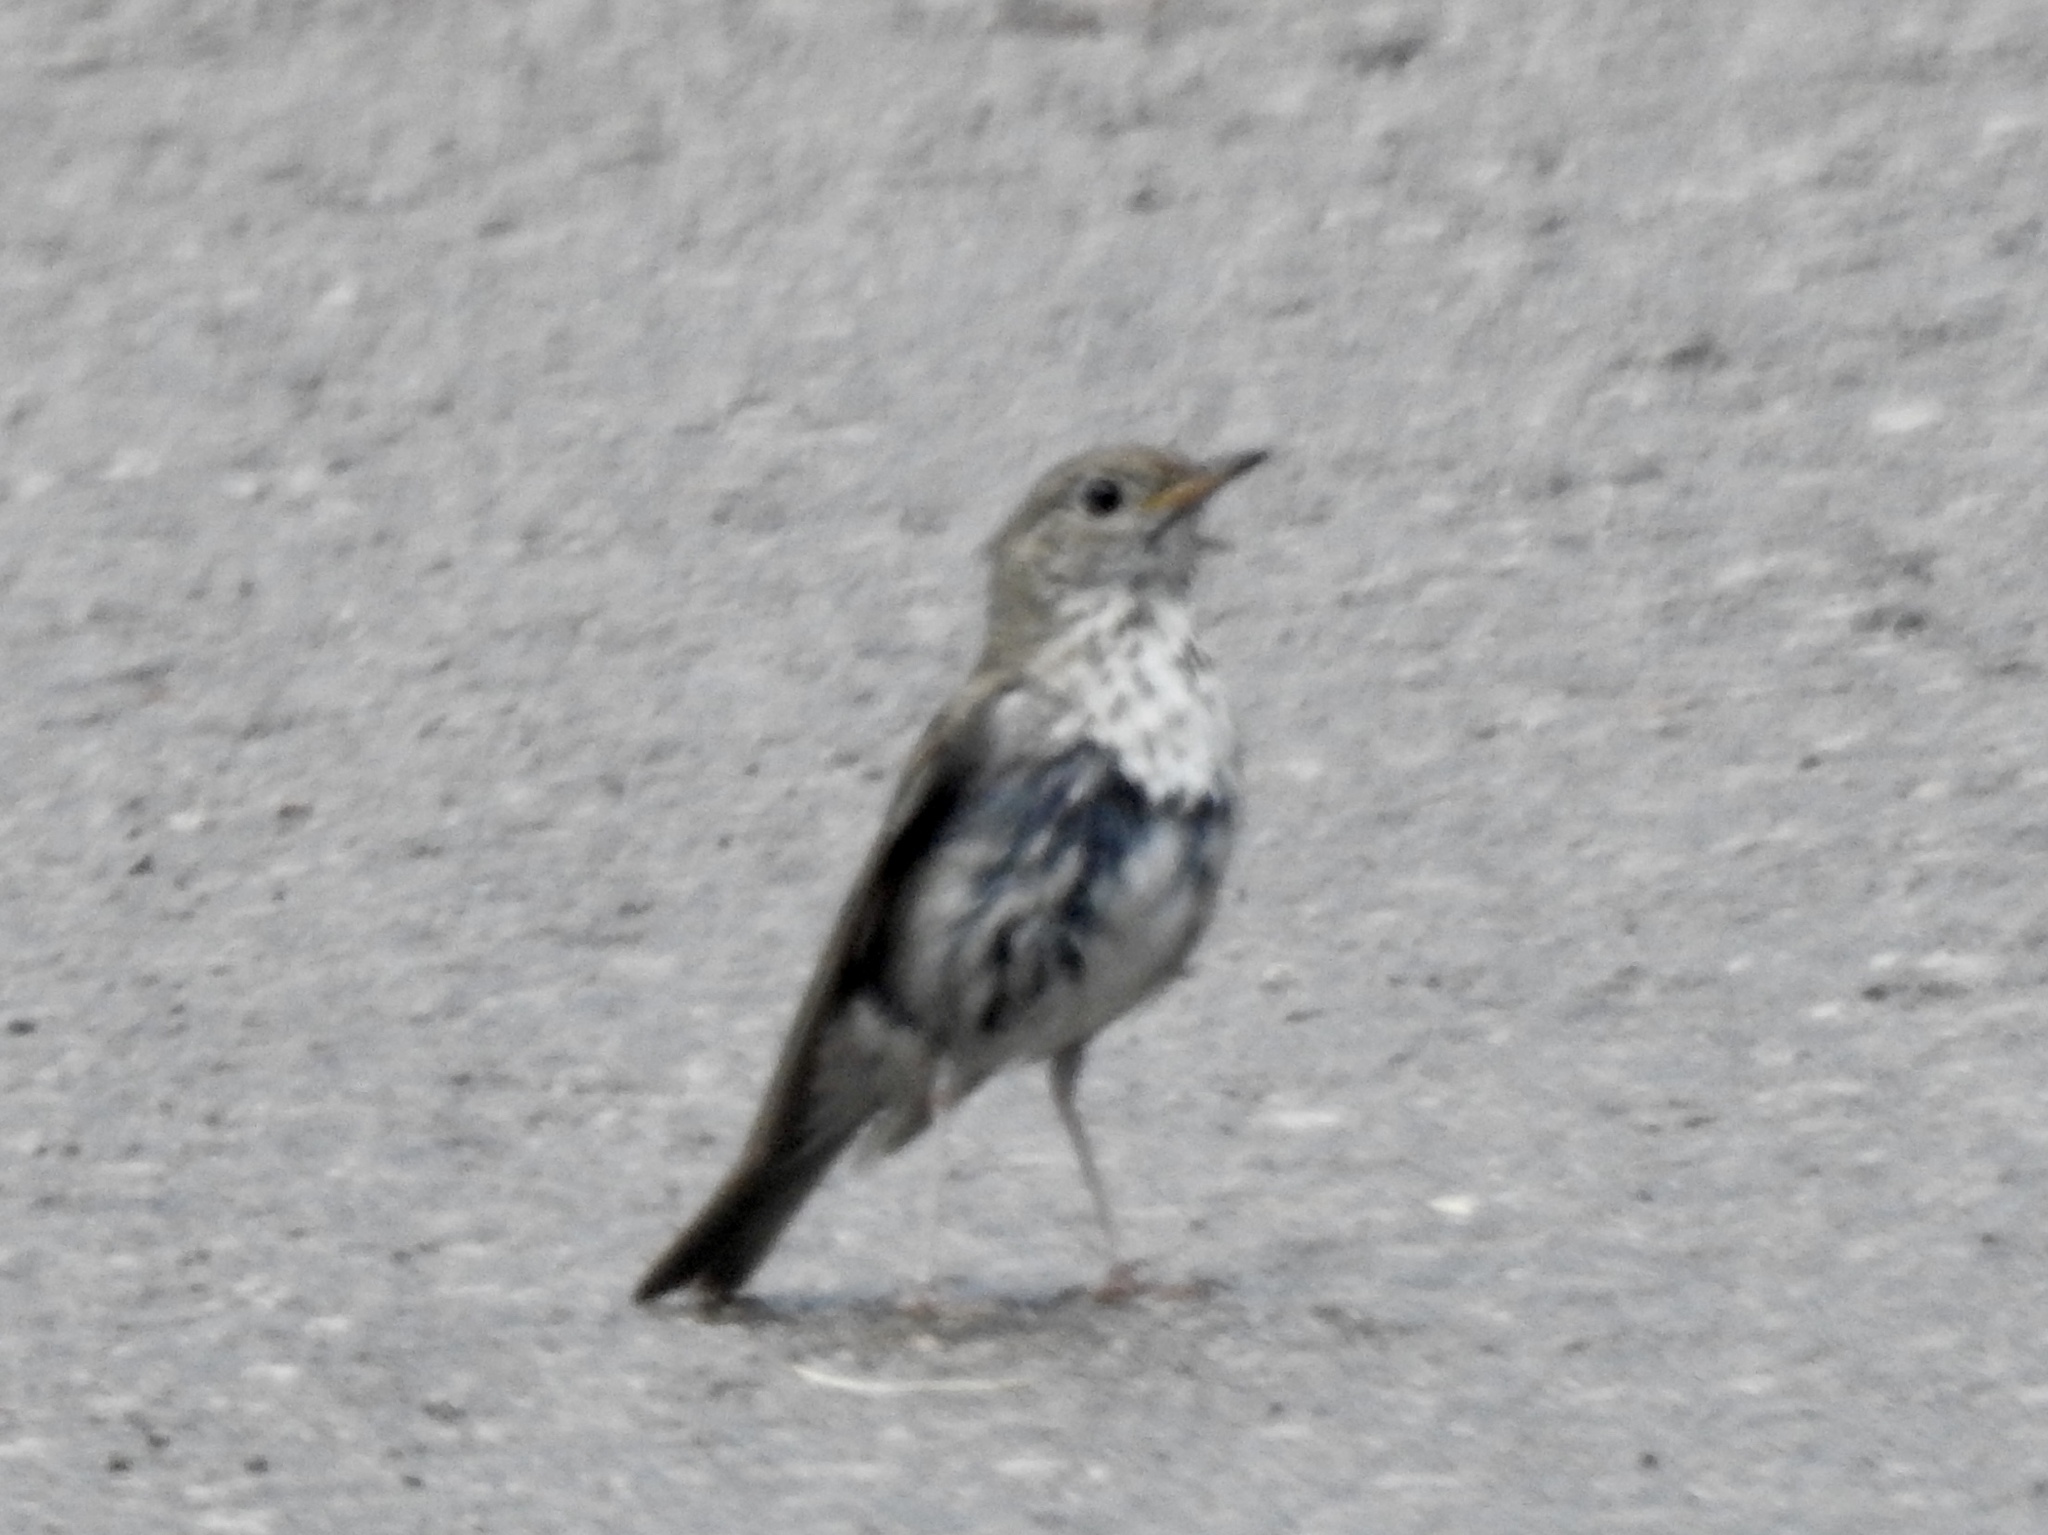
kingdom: Animalia
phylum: Chordata
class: Aves
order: Passeriformes
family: Turdidae
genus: Catharus
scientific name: Catharus guttatus
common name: Hermit thrush
